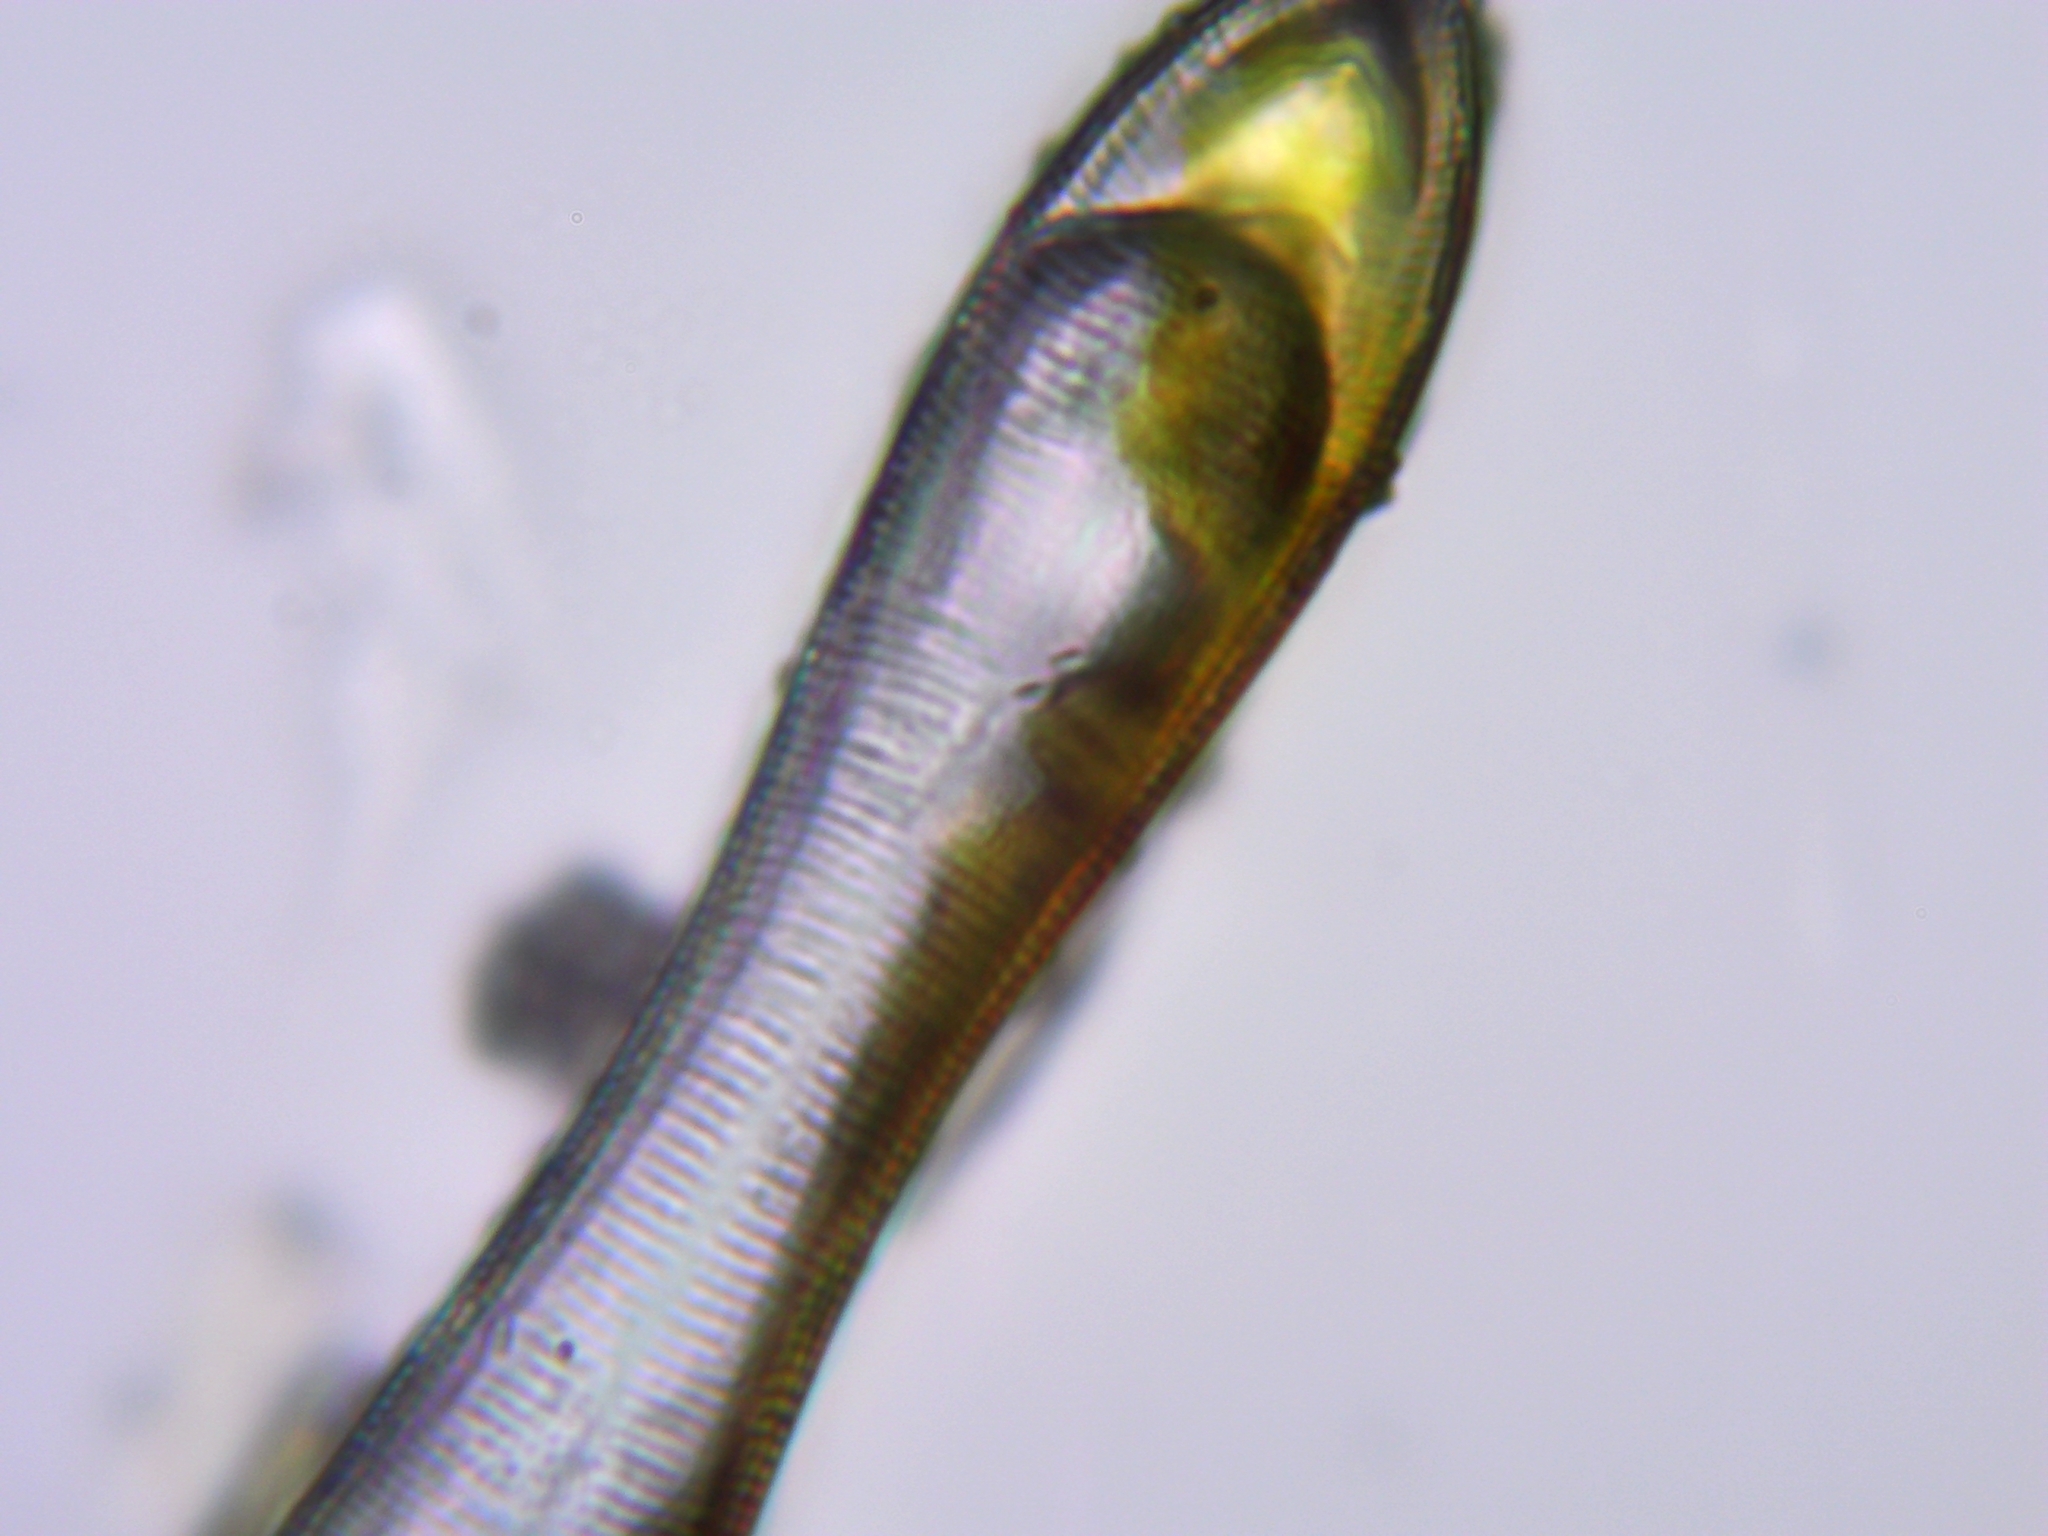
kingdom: Chromista
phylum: Ochrophyta
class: Bacillariophyceae
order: Surirellales
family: Surirellaceae
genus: Surirella
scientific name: Surirella librile
